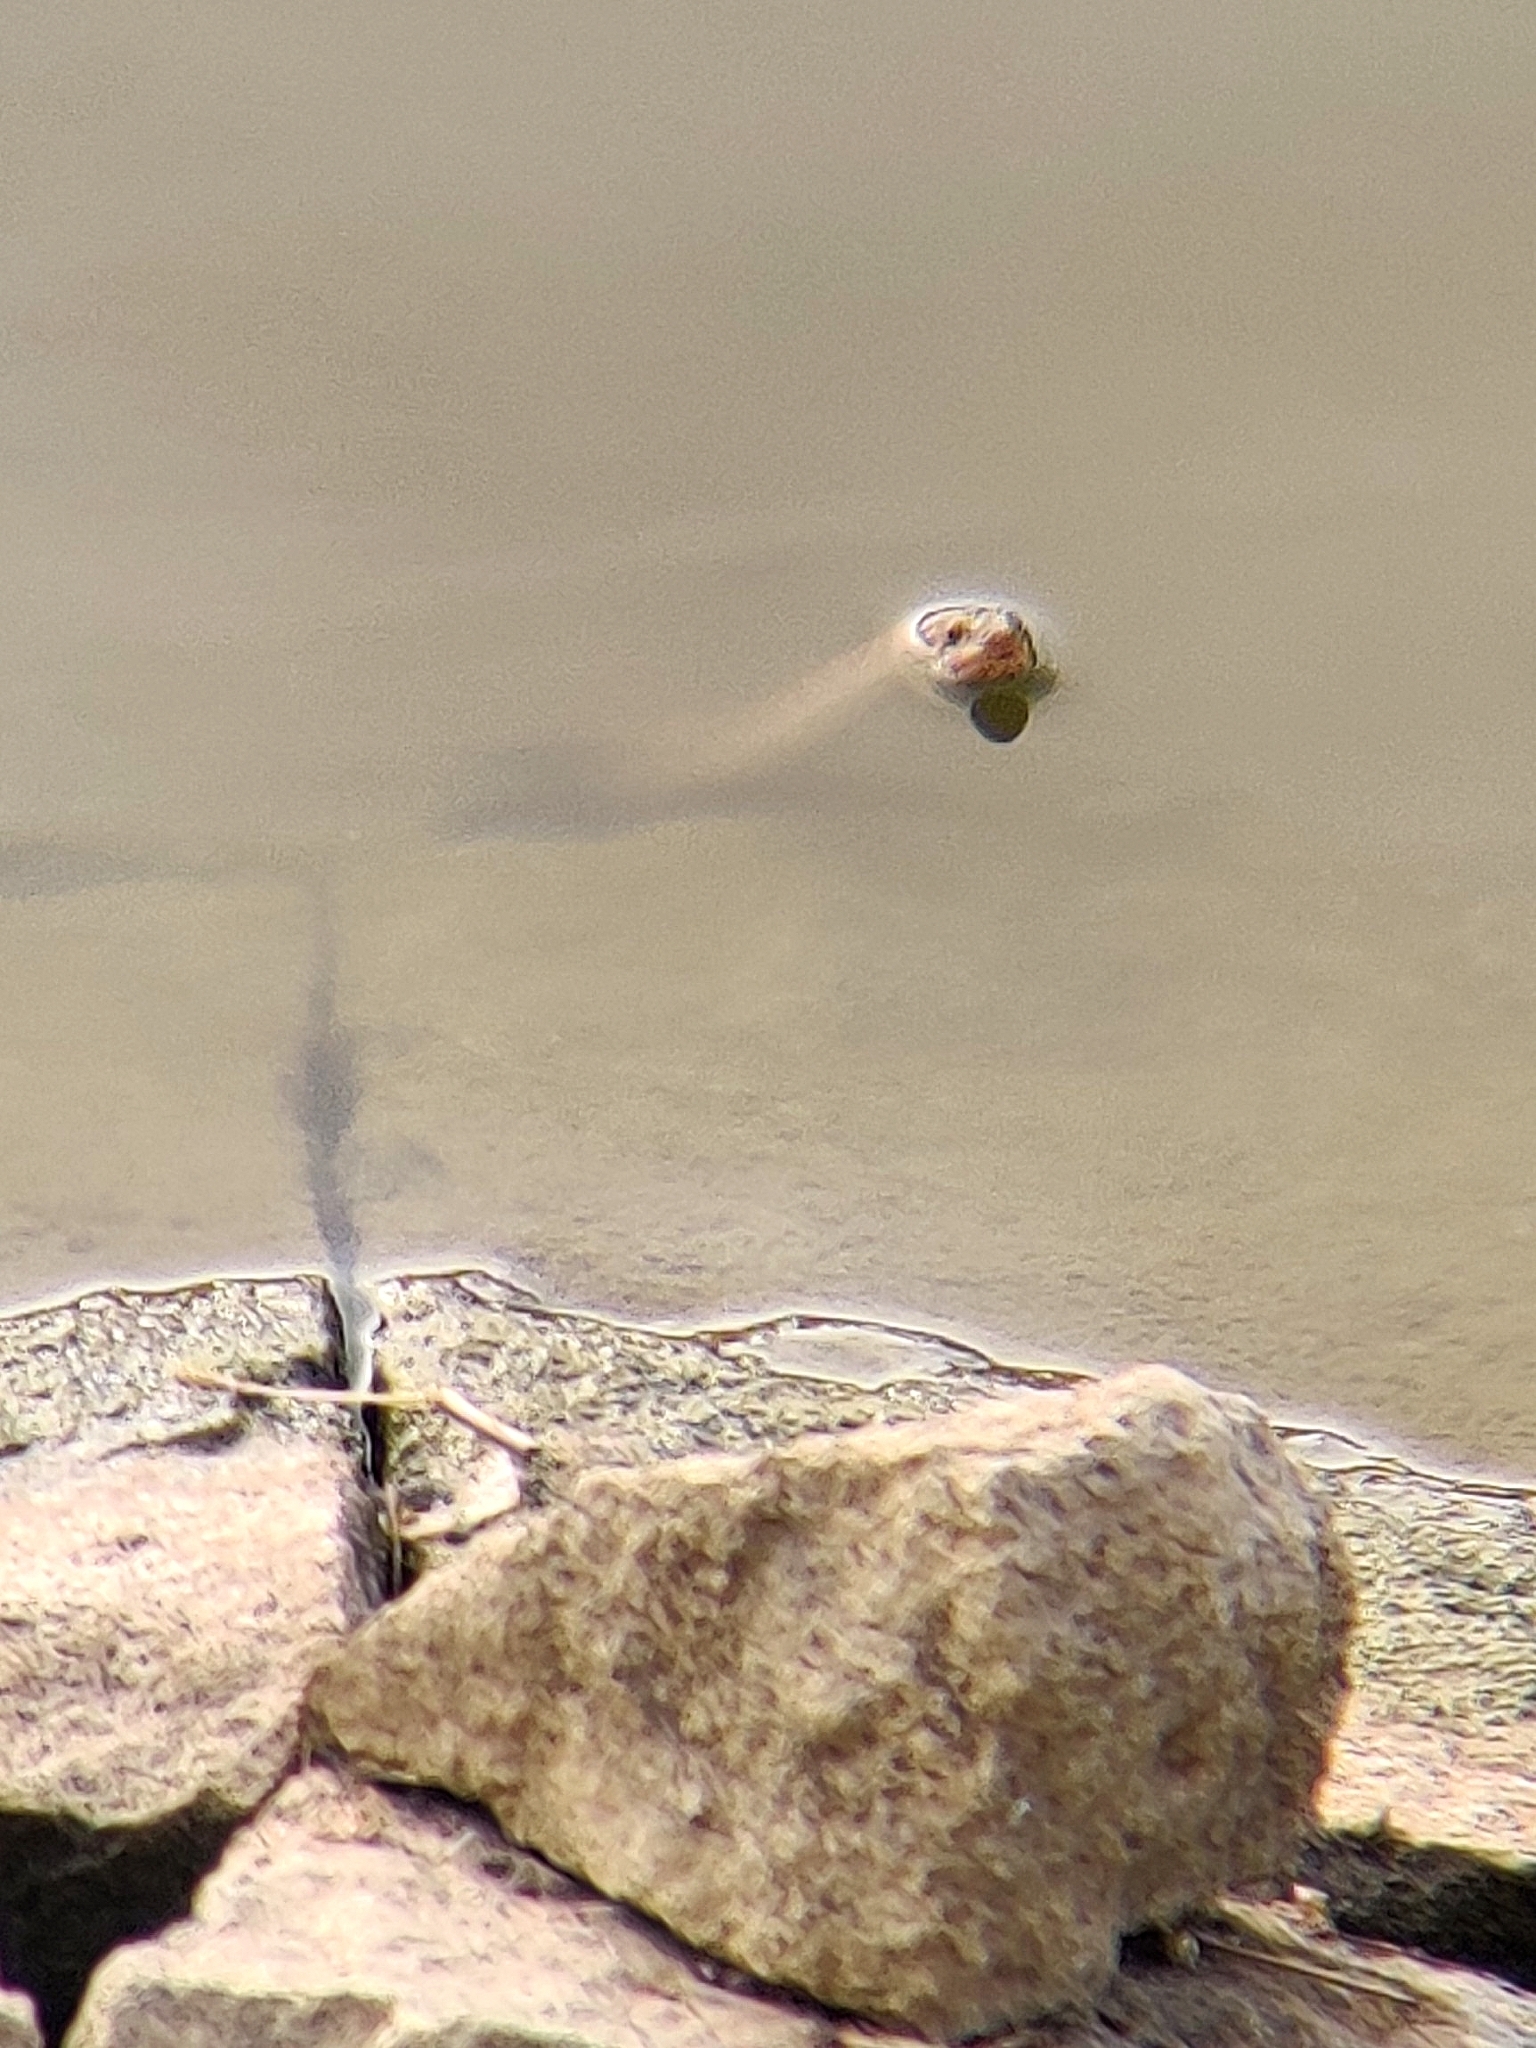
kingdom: Animalia
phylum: Chordata
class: Squamata
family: Colubridae
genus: Fowlea
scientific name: Fowlea piscator
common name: Asiatic water snake
